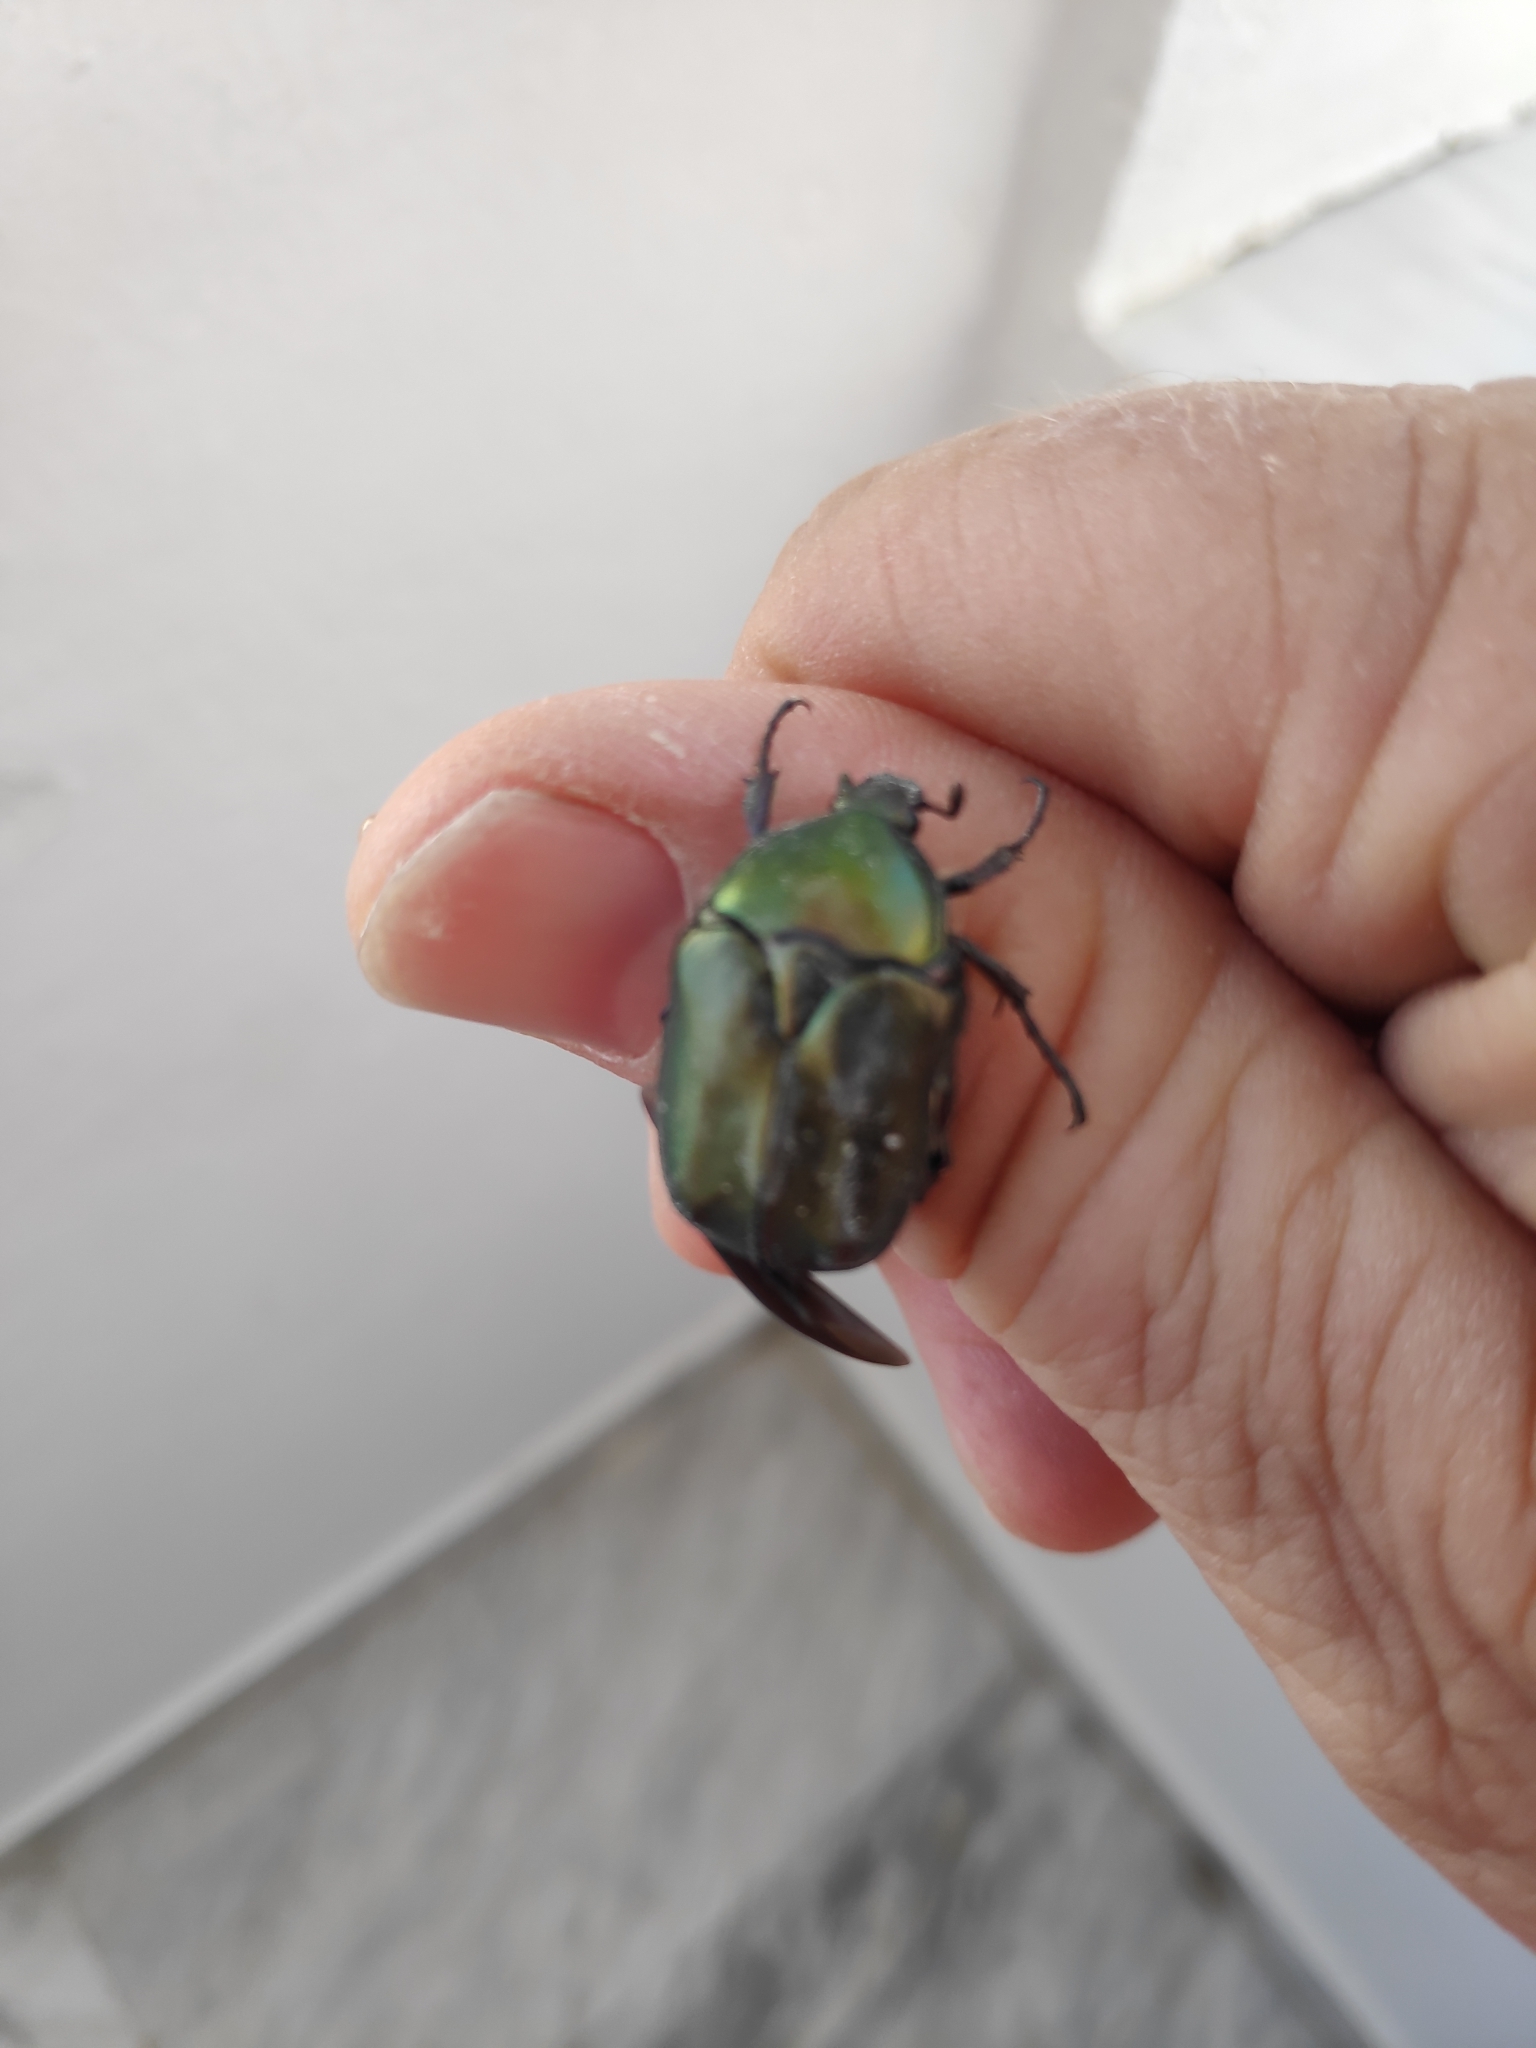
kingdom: Animalia
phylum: Arthropoda
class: Insecta
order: Coleoptera
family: Scarabaeidae
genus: Protaetia
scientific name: Protaetia cuprea
